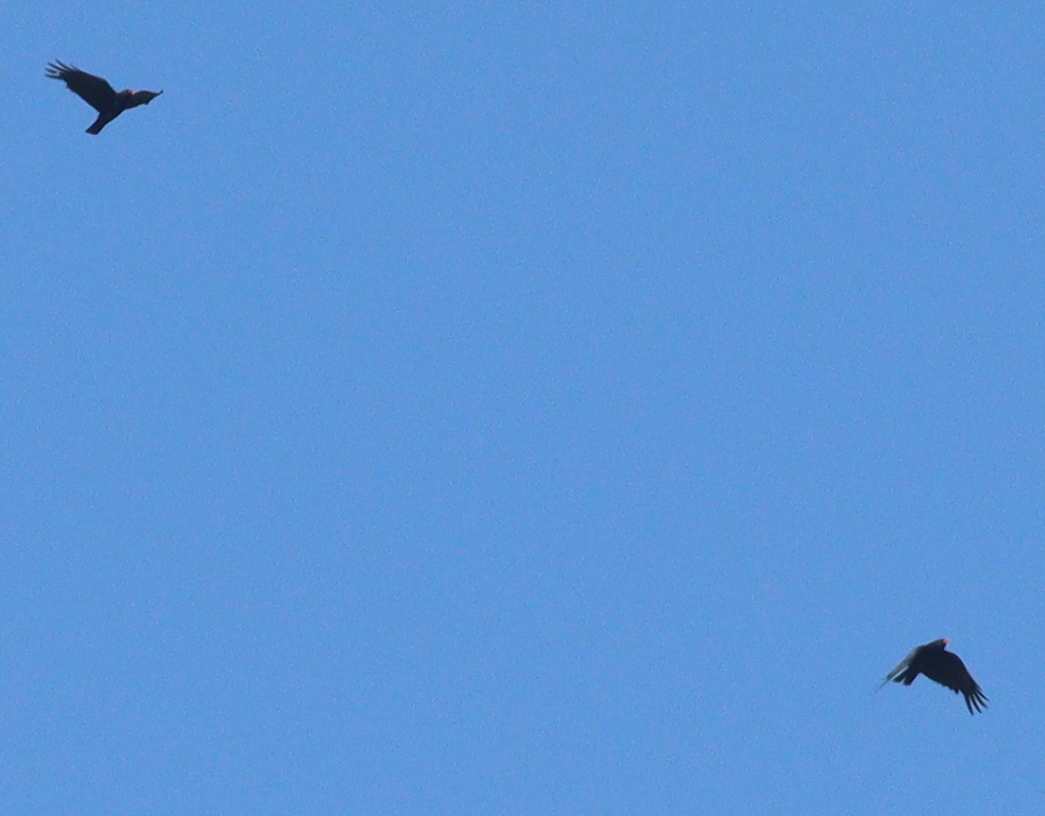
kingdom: Animalia
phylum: Chordata
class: Aves
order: Passeriformes
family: Corvidae
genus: Pyrrhocorax
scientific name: Pyrrhocorax pyrrhocorax
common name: Red-billed chough
